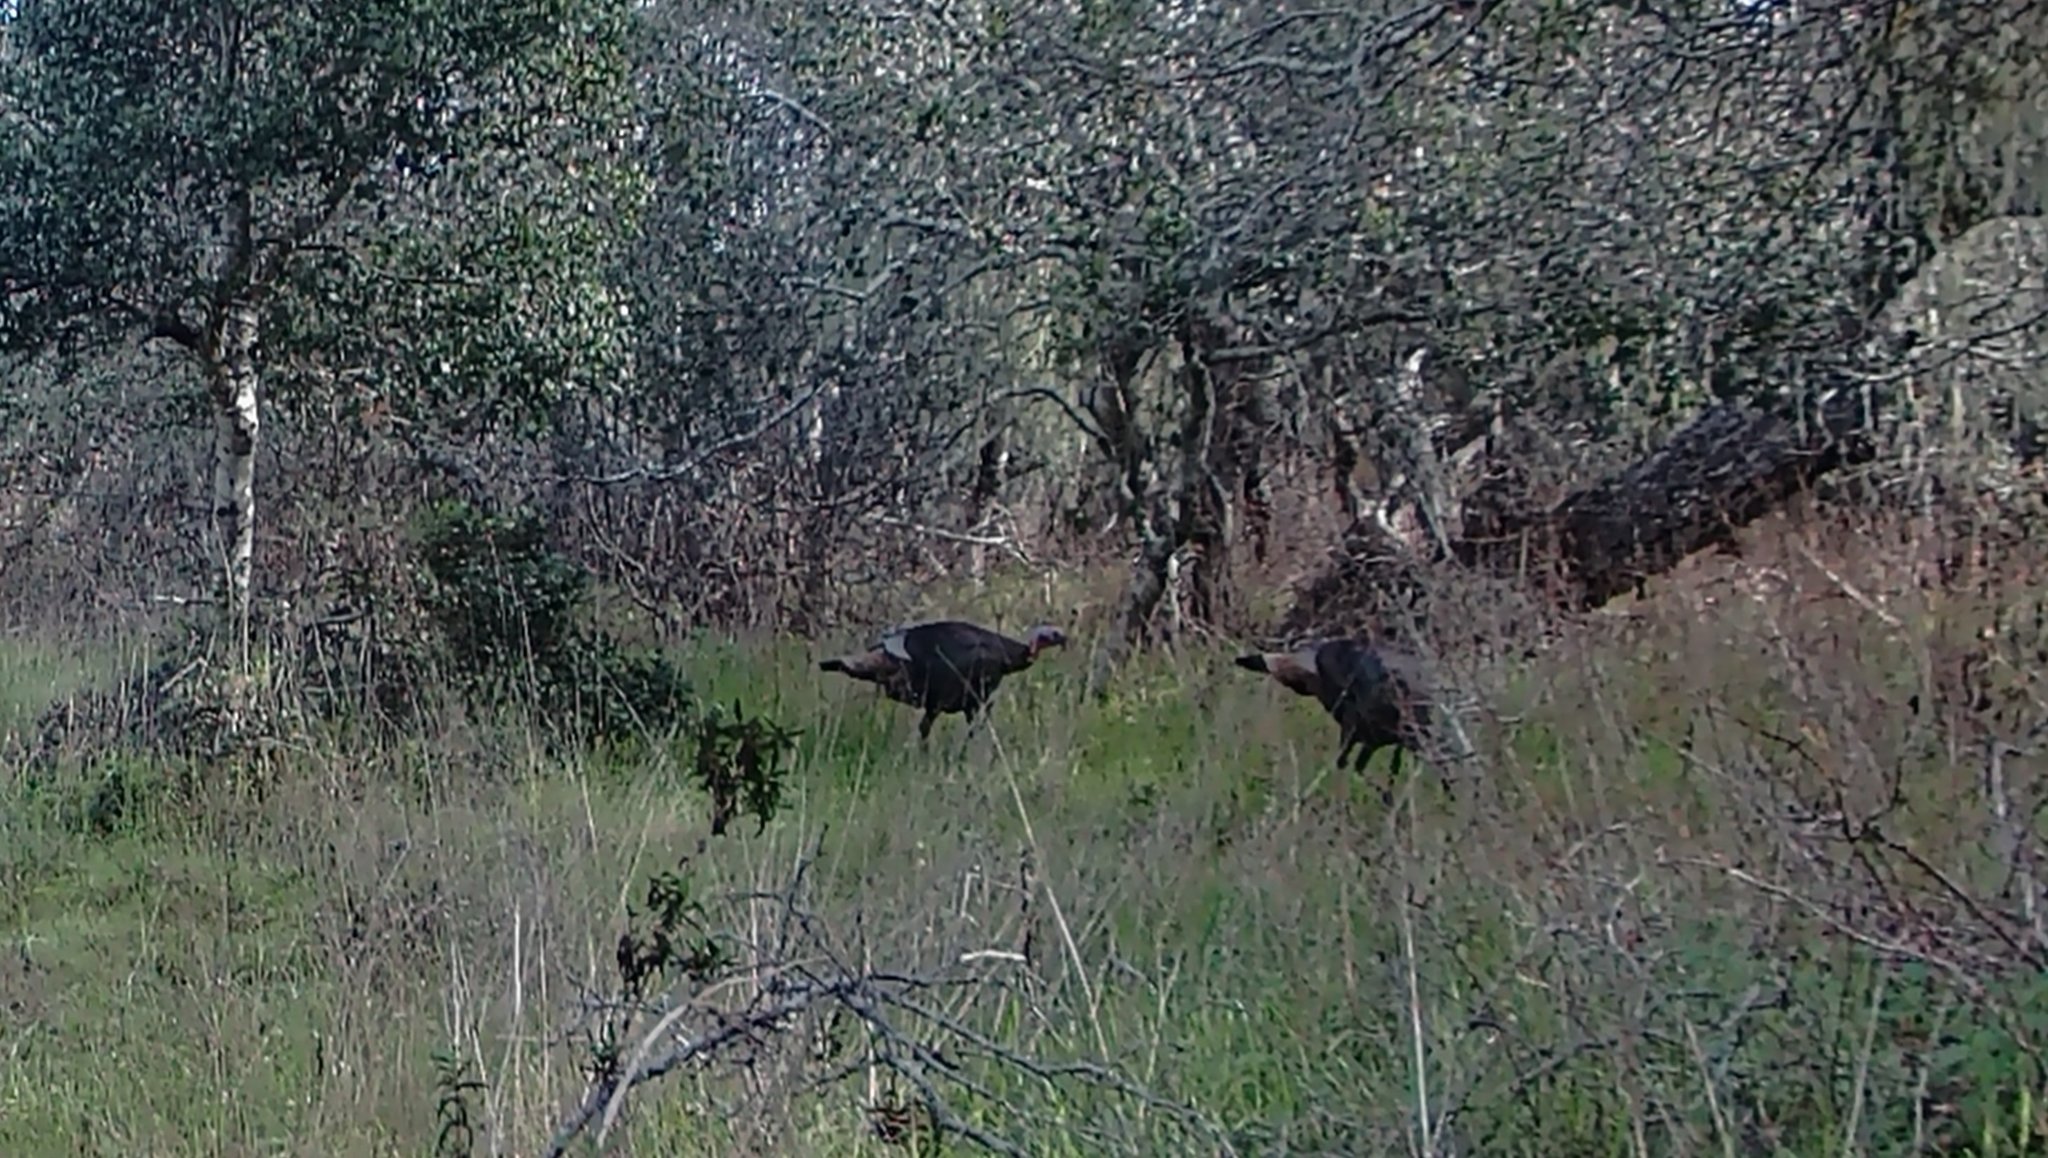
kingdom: Animalia
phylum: Chordata
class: Aves
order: Galliformes
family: Phasianidae
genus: Meleagris
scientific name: Meleagris gallopavo
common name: Wild turkey
